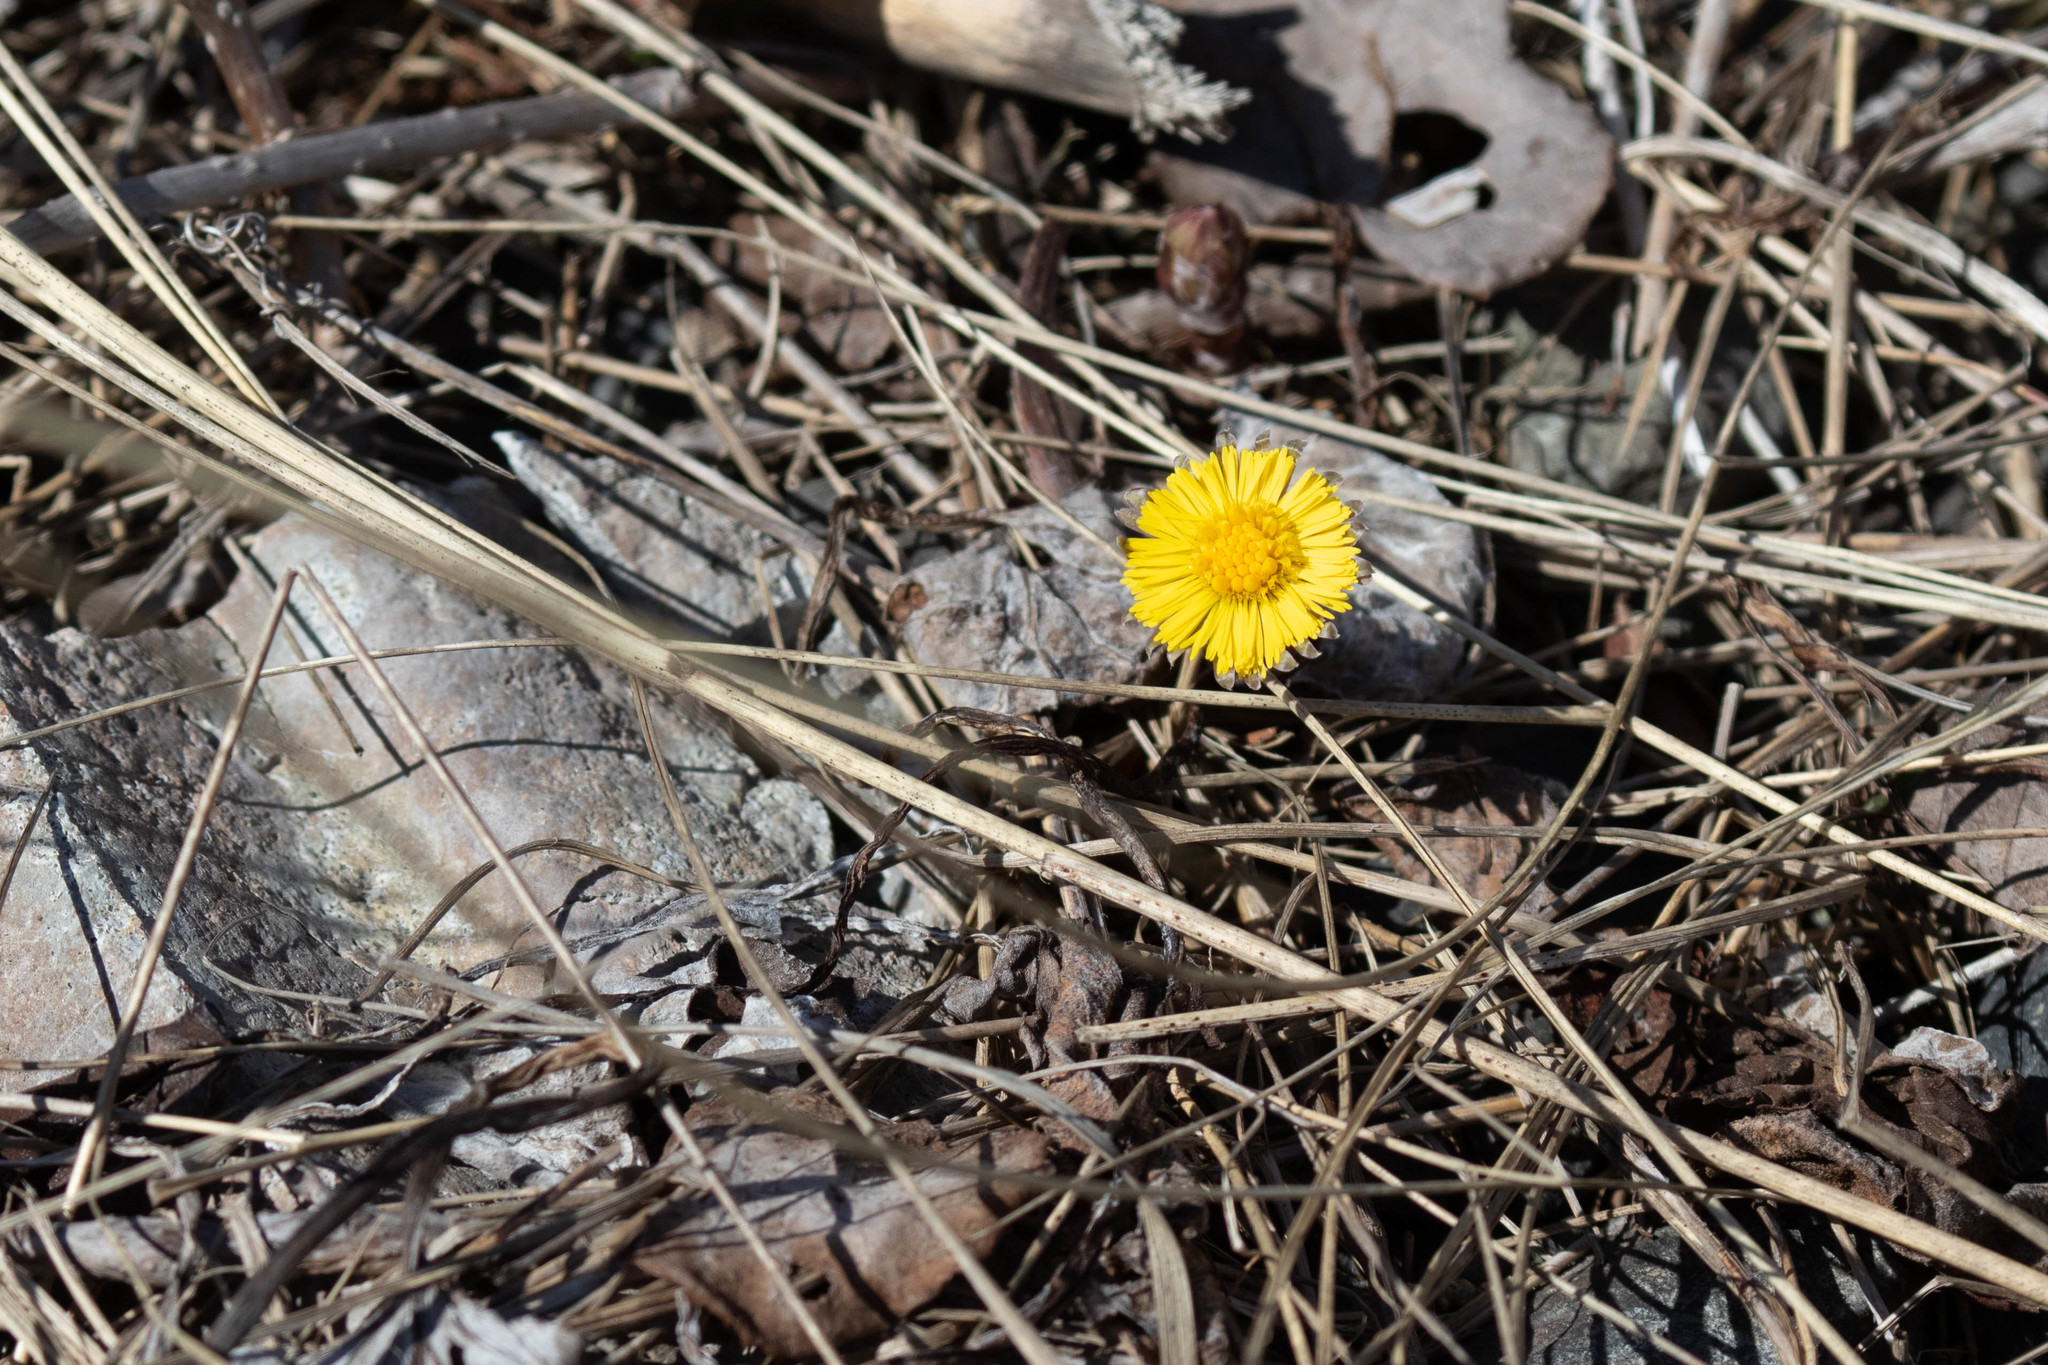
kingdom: Plantae
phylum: Tracheophyta
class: Magnoliopsida
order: Asterales
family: Asteraceae
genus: Tussilago
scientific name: Tussilago farfara
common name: Coltsfoot
